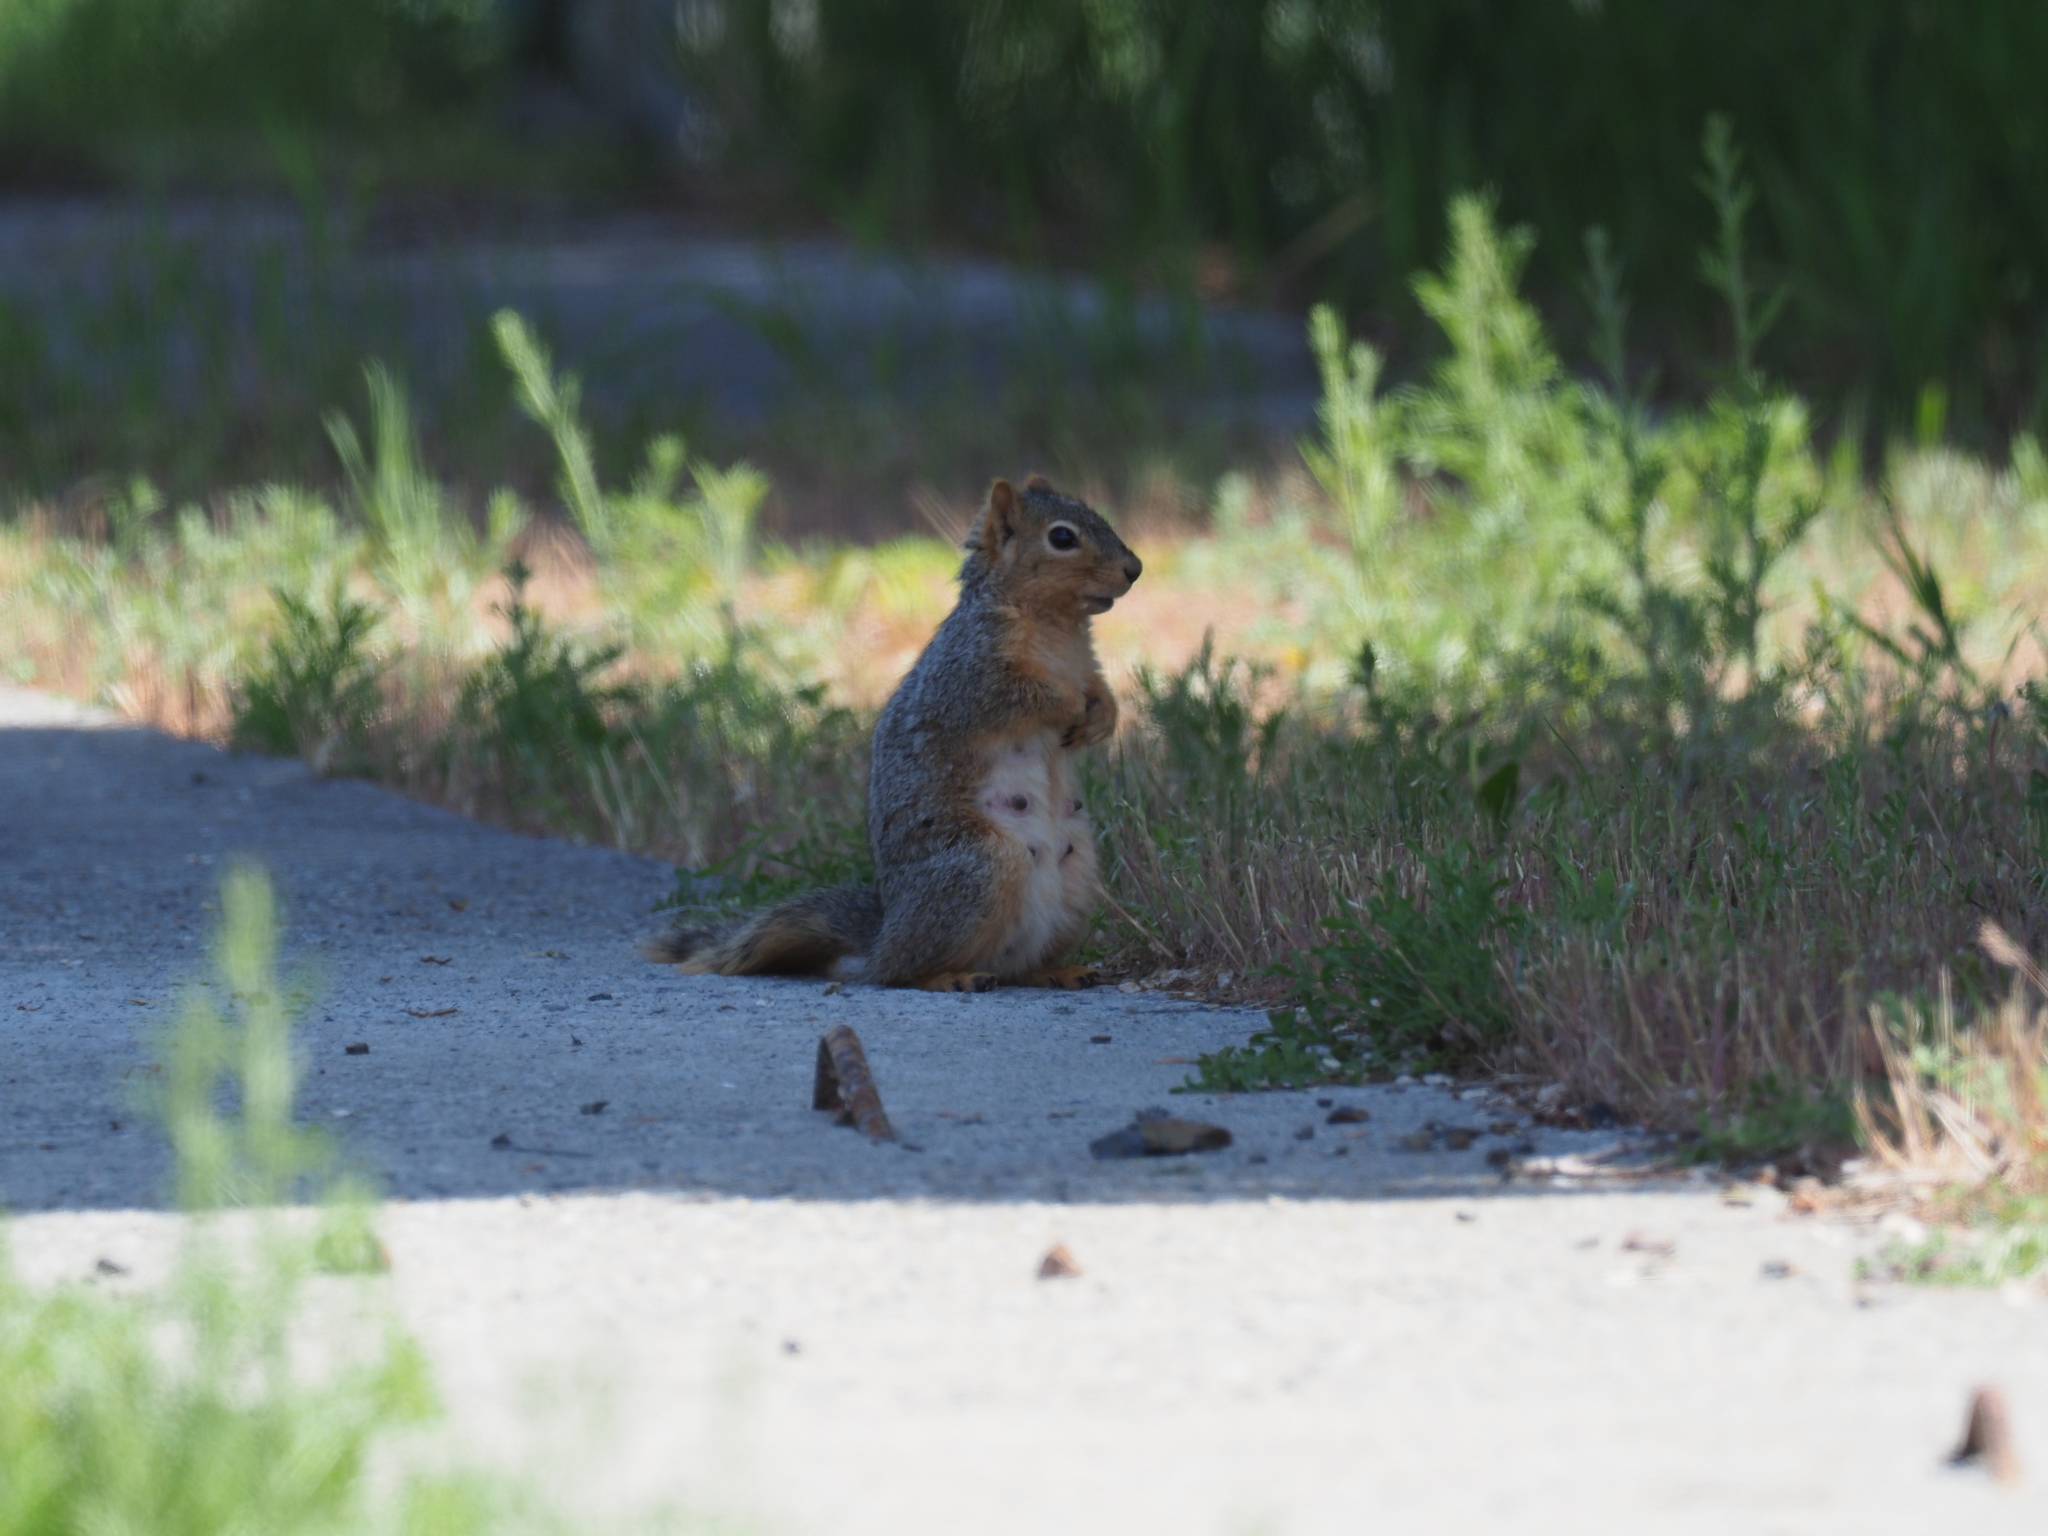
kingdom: Animalia
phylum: Chordata
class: Mammalia
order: Rodentia
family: Sciuridae
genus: Sciurus
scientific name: Sciurus niger
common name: Fox squirrel
